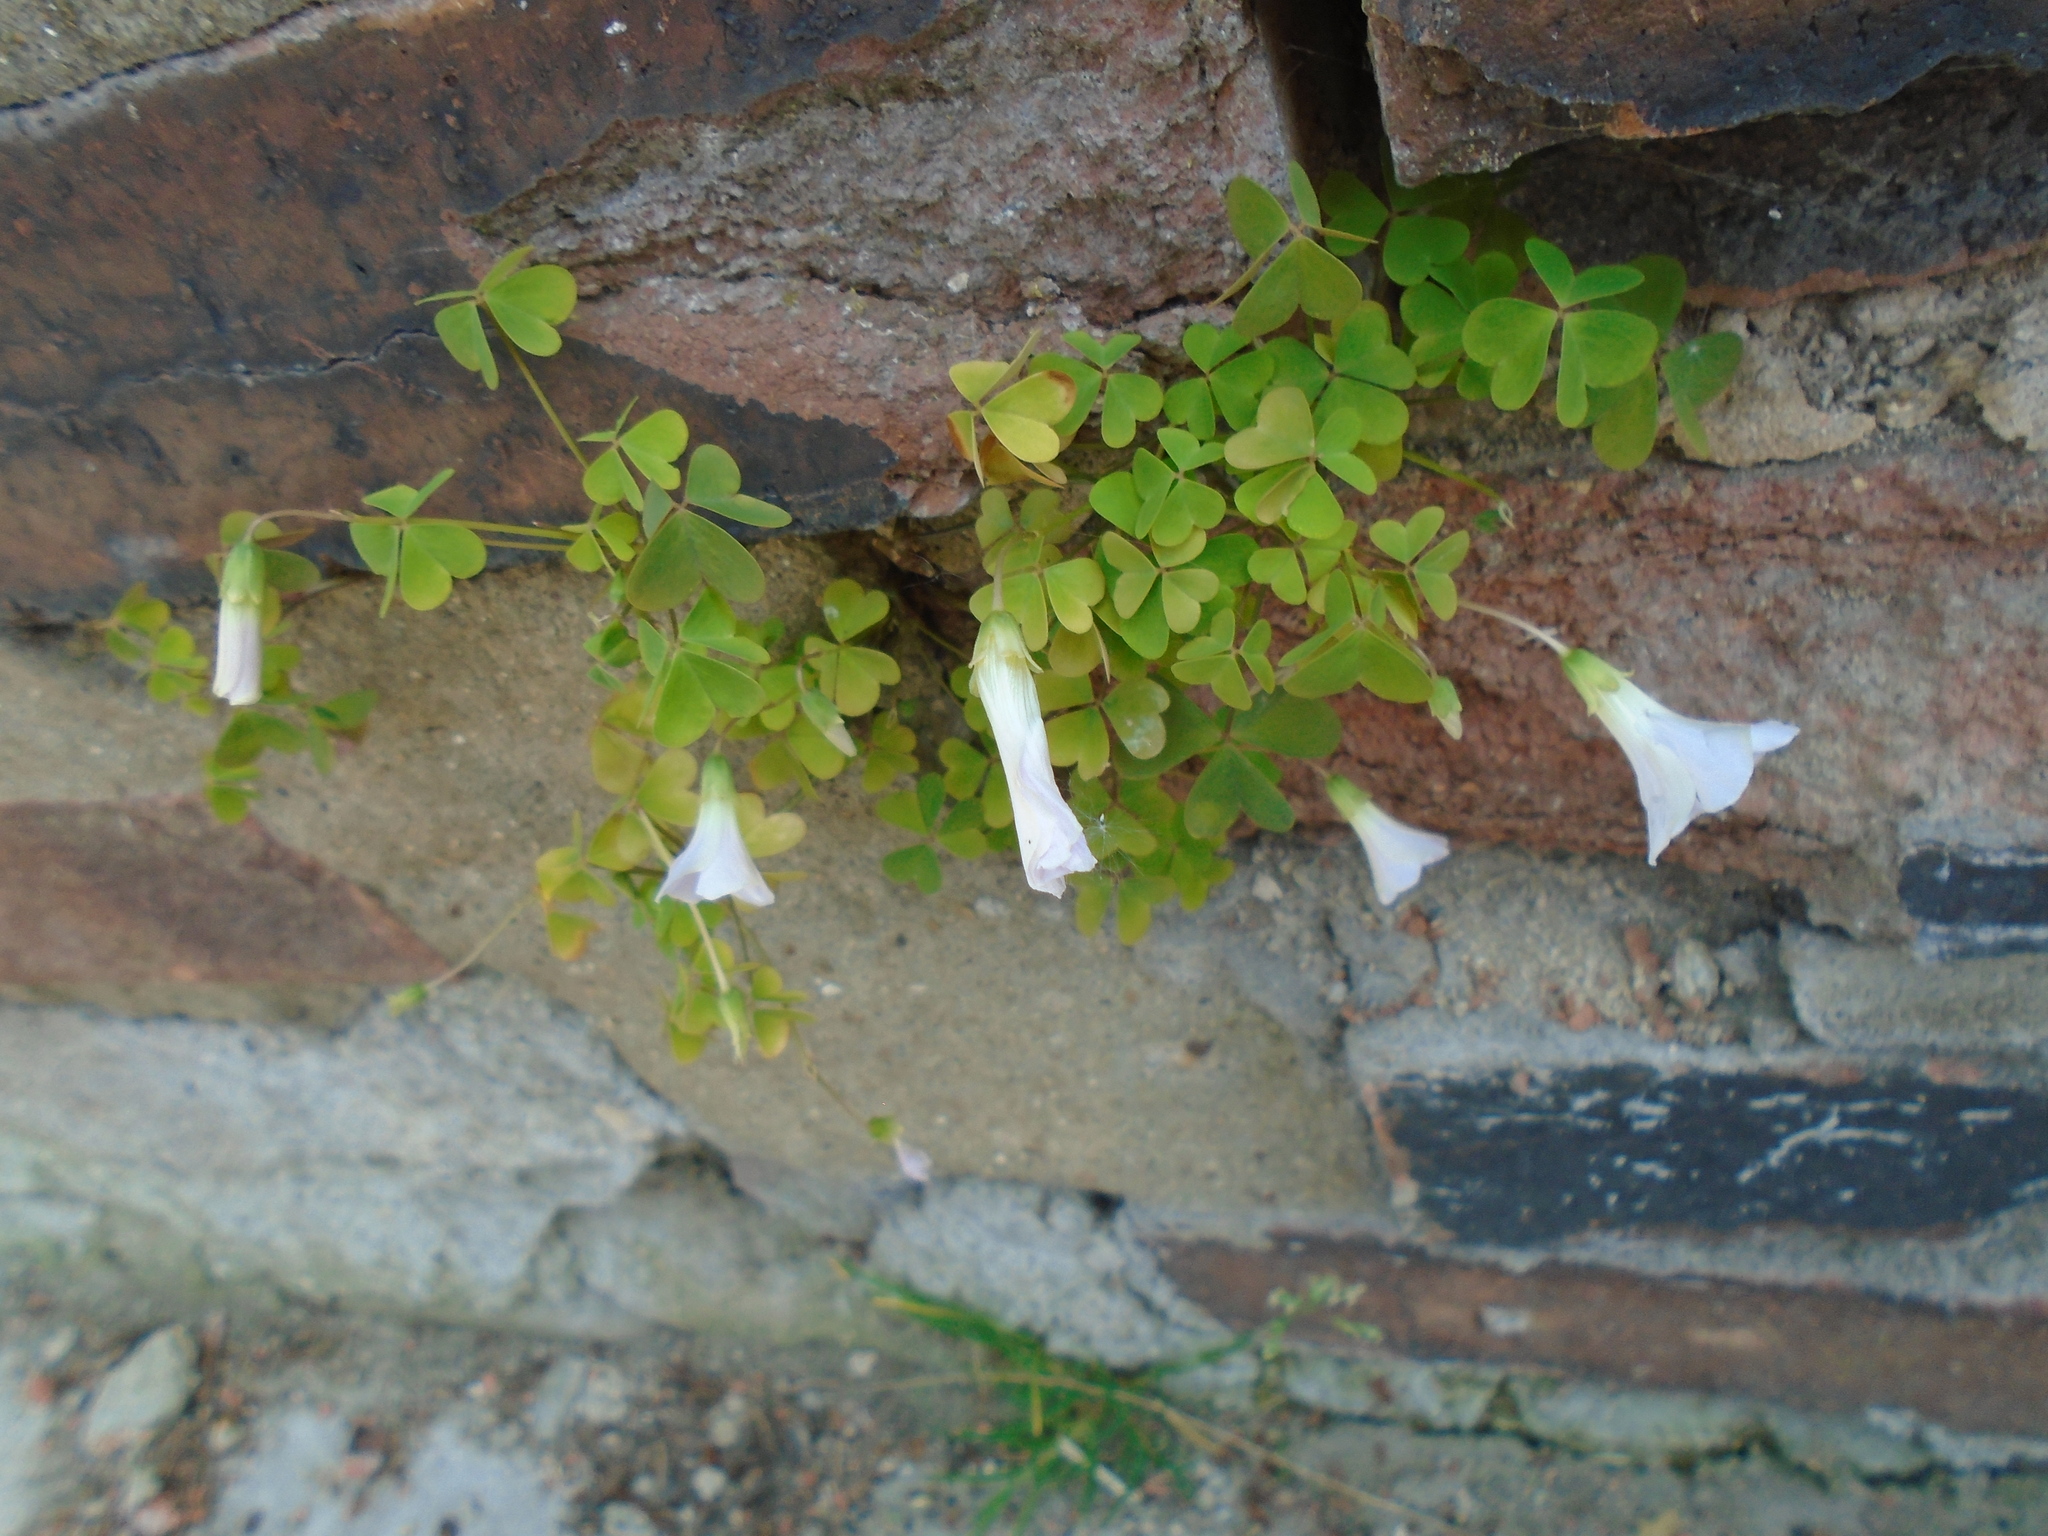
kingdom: Plantae
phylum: Tracheophyta
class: Magnoliopsida
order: Oxalidales
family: Oxalidaceae
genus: Oxalis
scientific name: Oxalis incarnata
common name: Pale pink-sorrel
